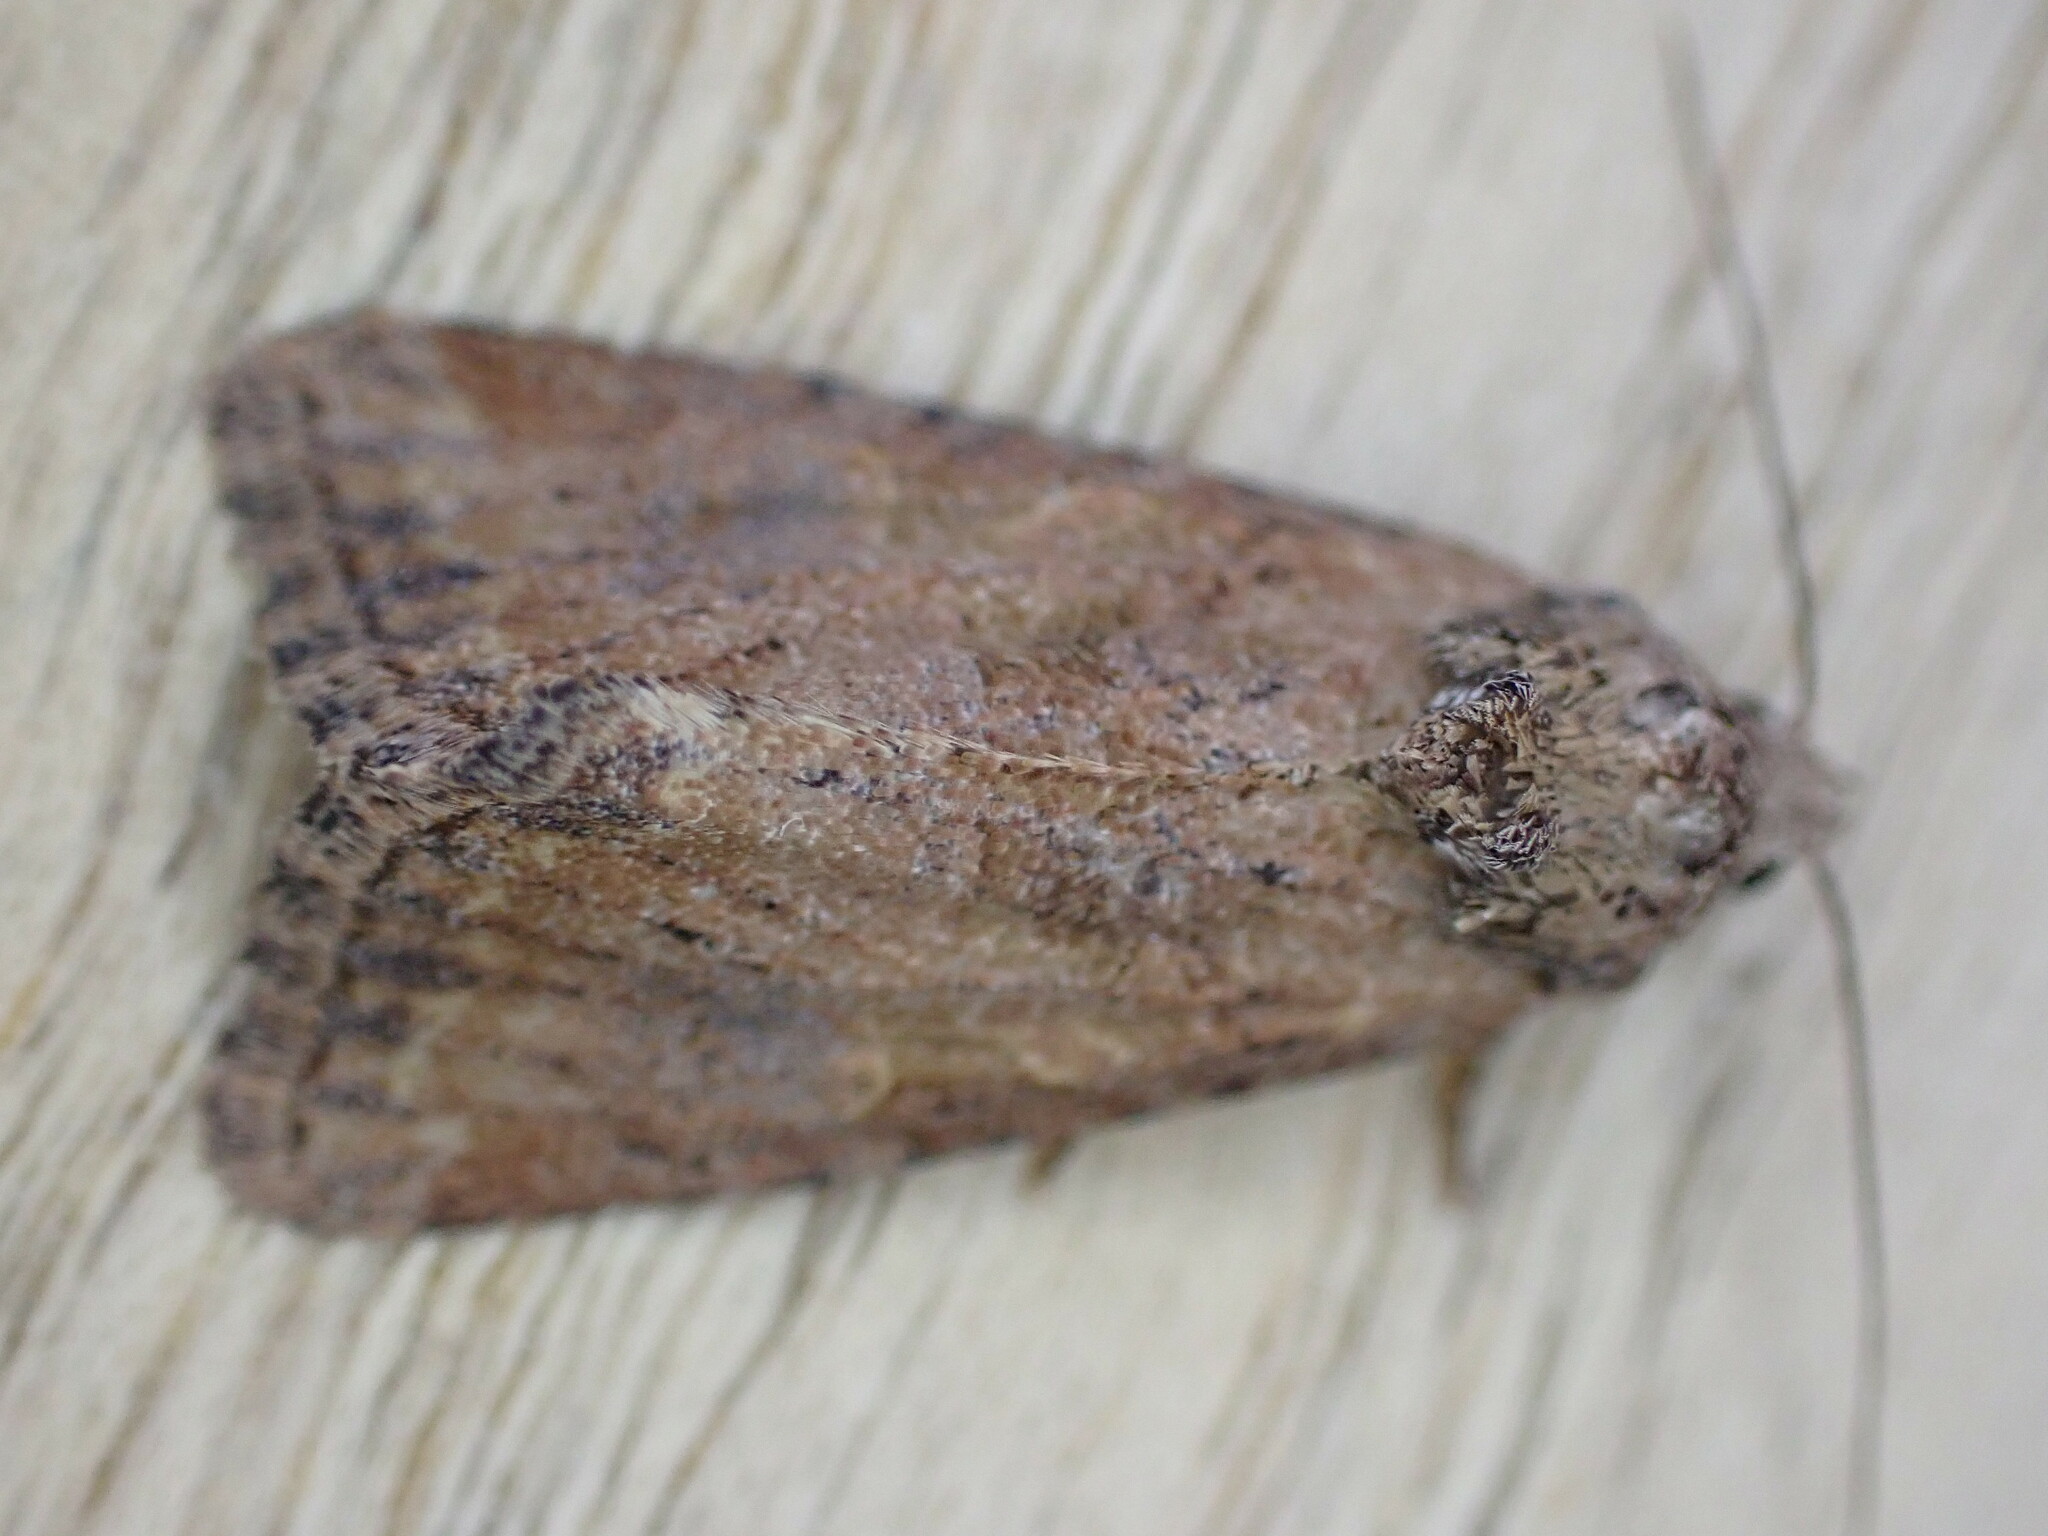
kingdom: Animalia
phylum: Arthropoda
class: Insecta
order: Lepidoptera
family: Noctuidae
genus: Mesoligia
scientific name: Mesoligia furuncula
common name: Cloaked minor
